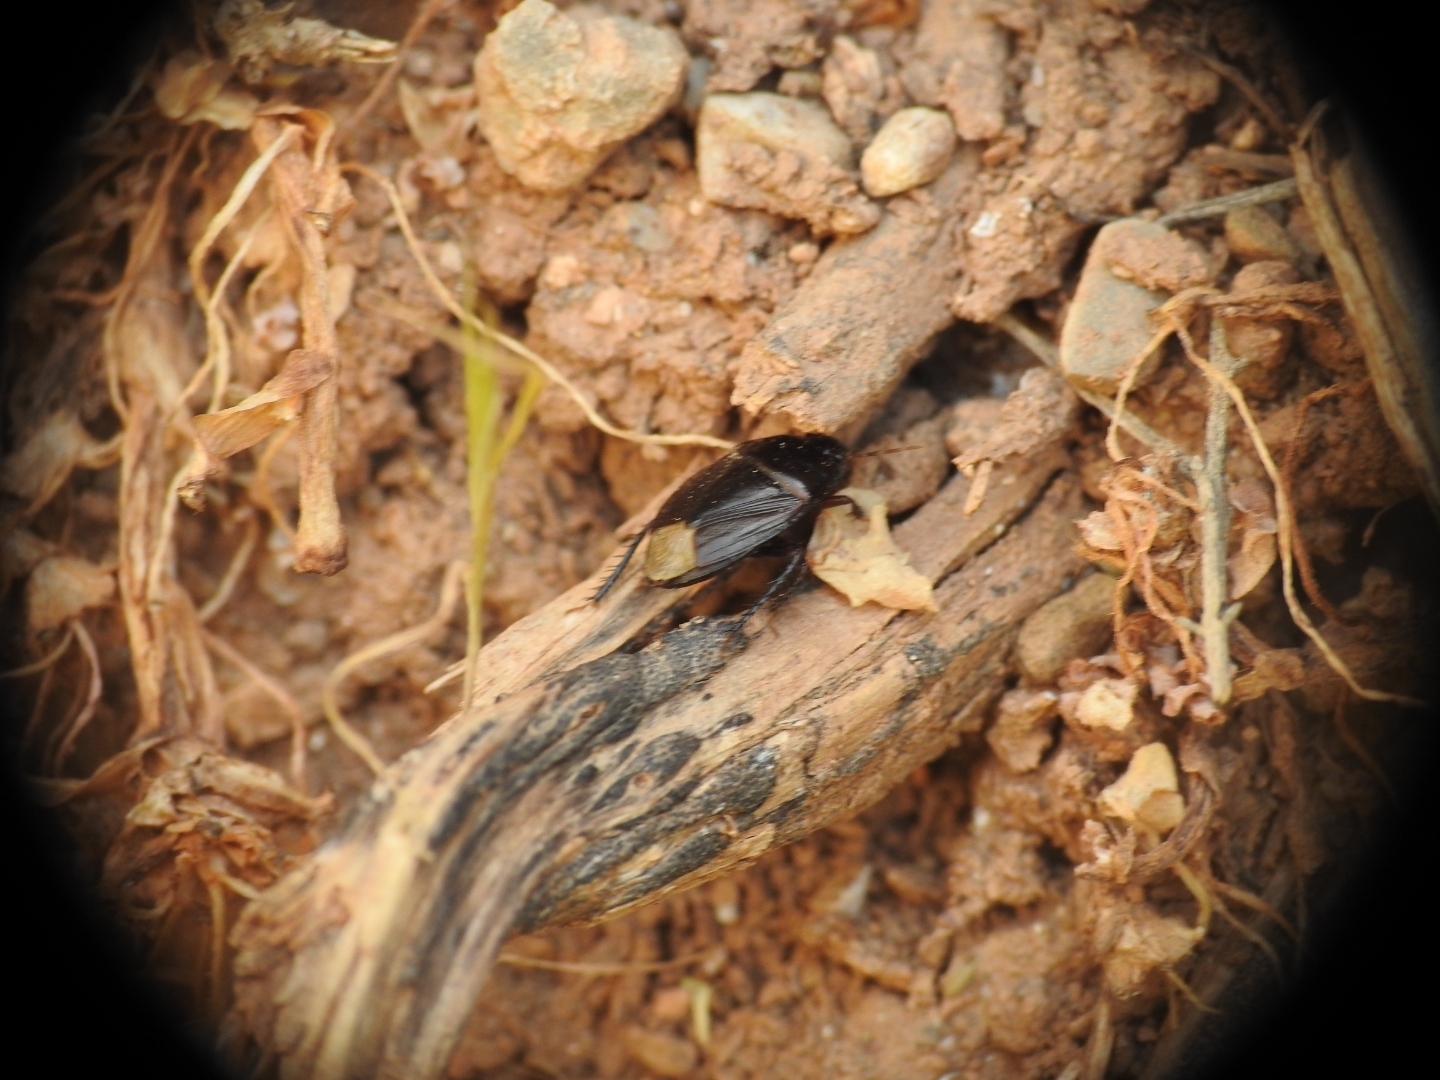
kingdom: Animalia
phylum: Arthropoda
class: Insecta
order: Hemiptera
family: Cydnidae
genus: Macroscytus
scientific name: Macroscytus brunneus
